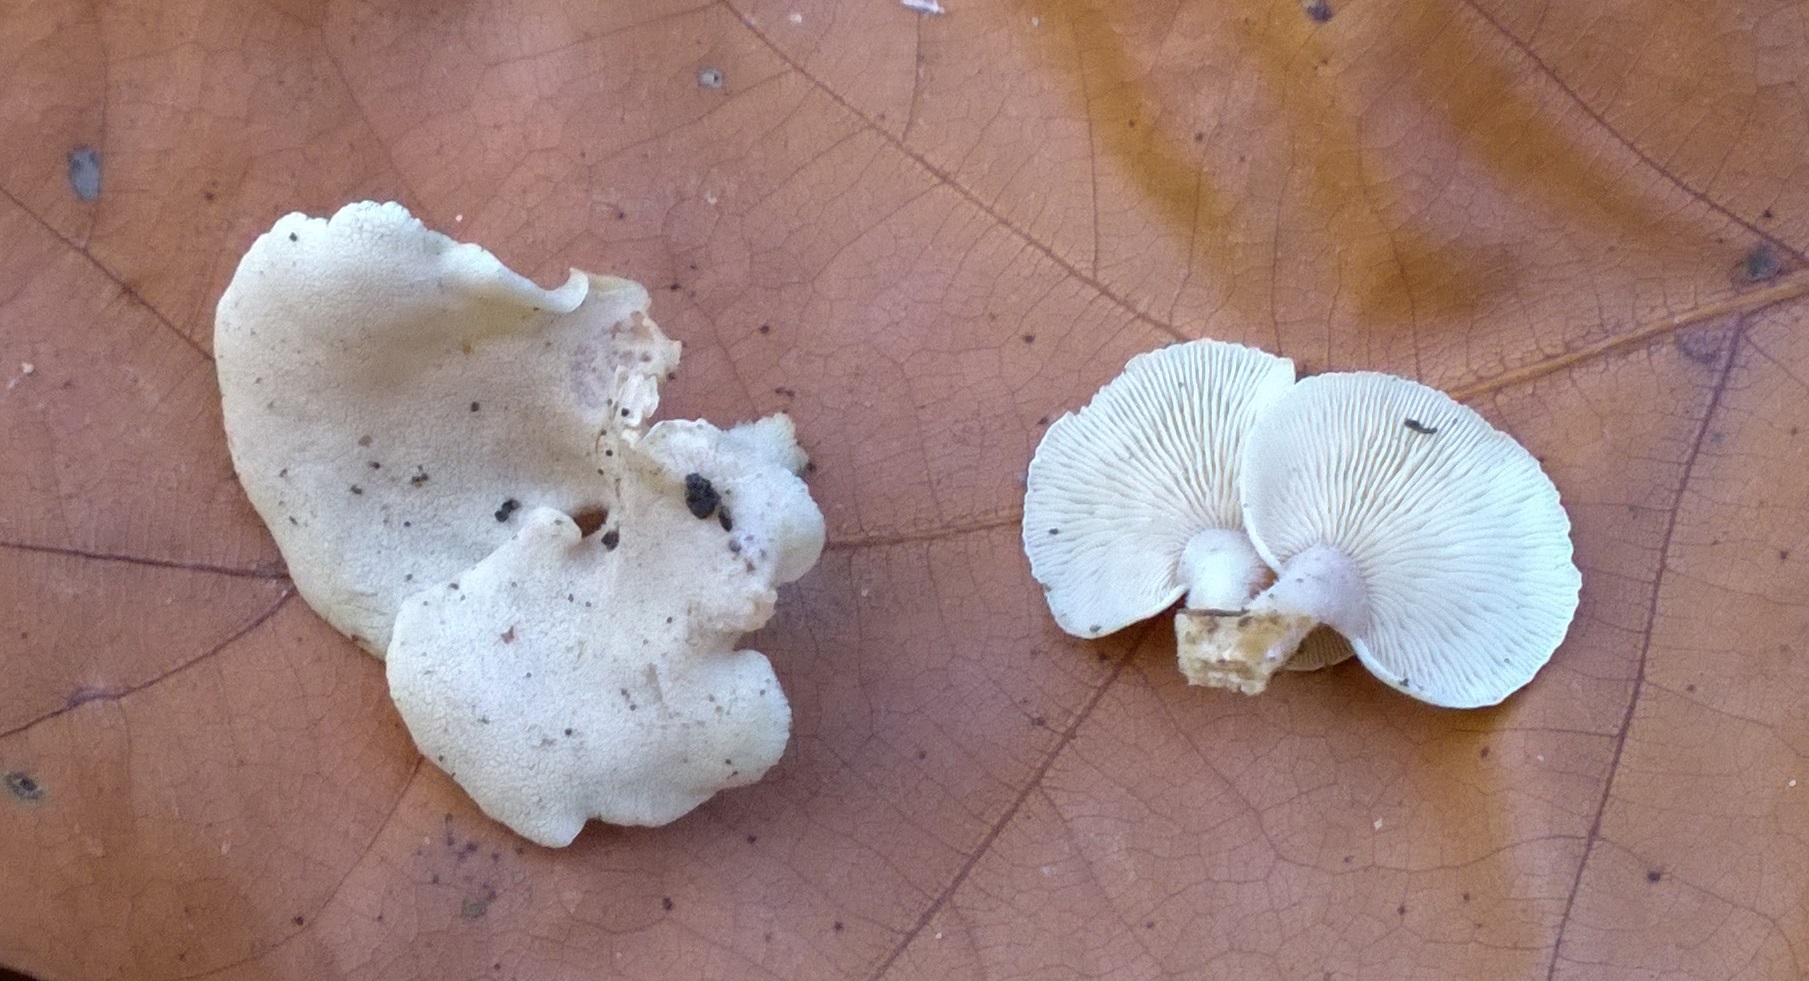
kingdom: Fungi
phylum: Basidiomycota
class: Agaricomycetes
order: Agaricales
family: Mycenaceae
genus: Panellus
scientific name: Panellus stipticus
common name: Bitter oysterling
